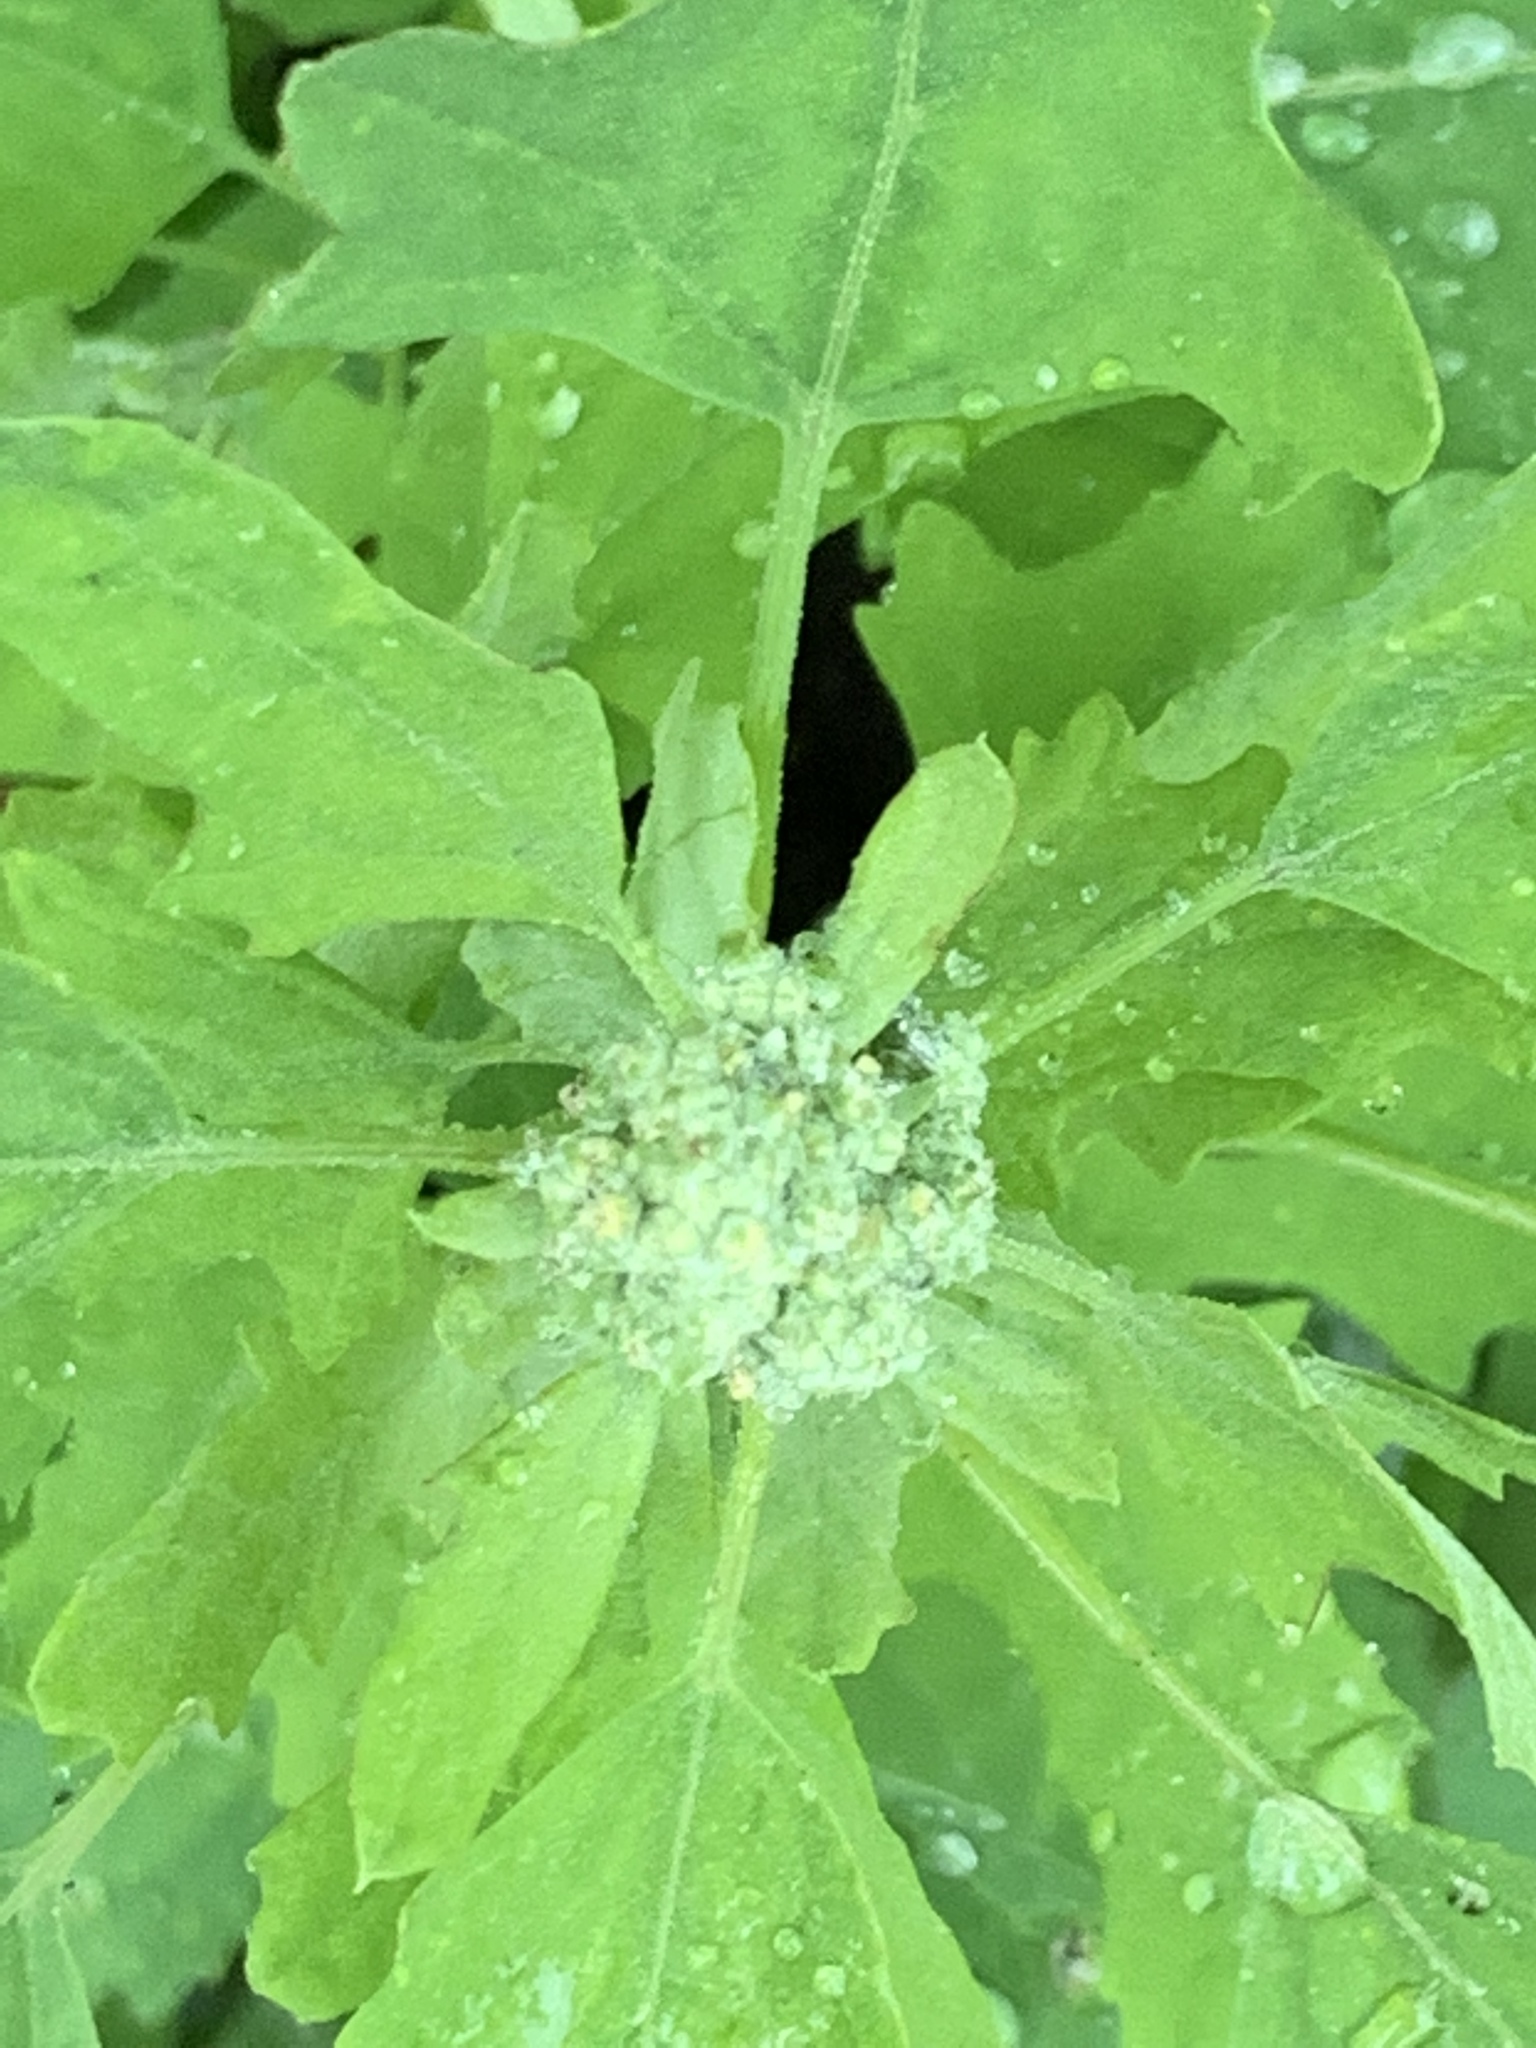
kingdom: Plantae
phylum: Tracheophyta
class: Magnoliopsida
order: Caryophyllales
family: Amaranthaceae
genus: Chenopodium
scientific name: Chenopodium album
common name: Fat-hen
